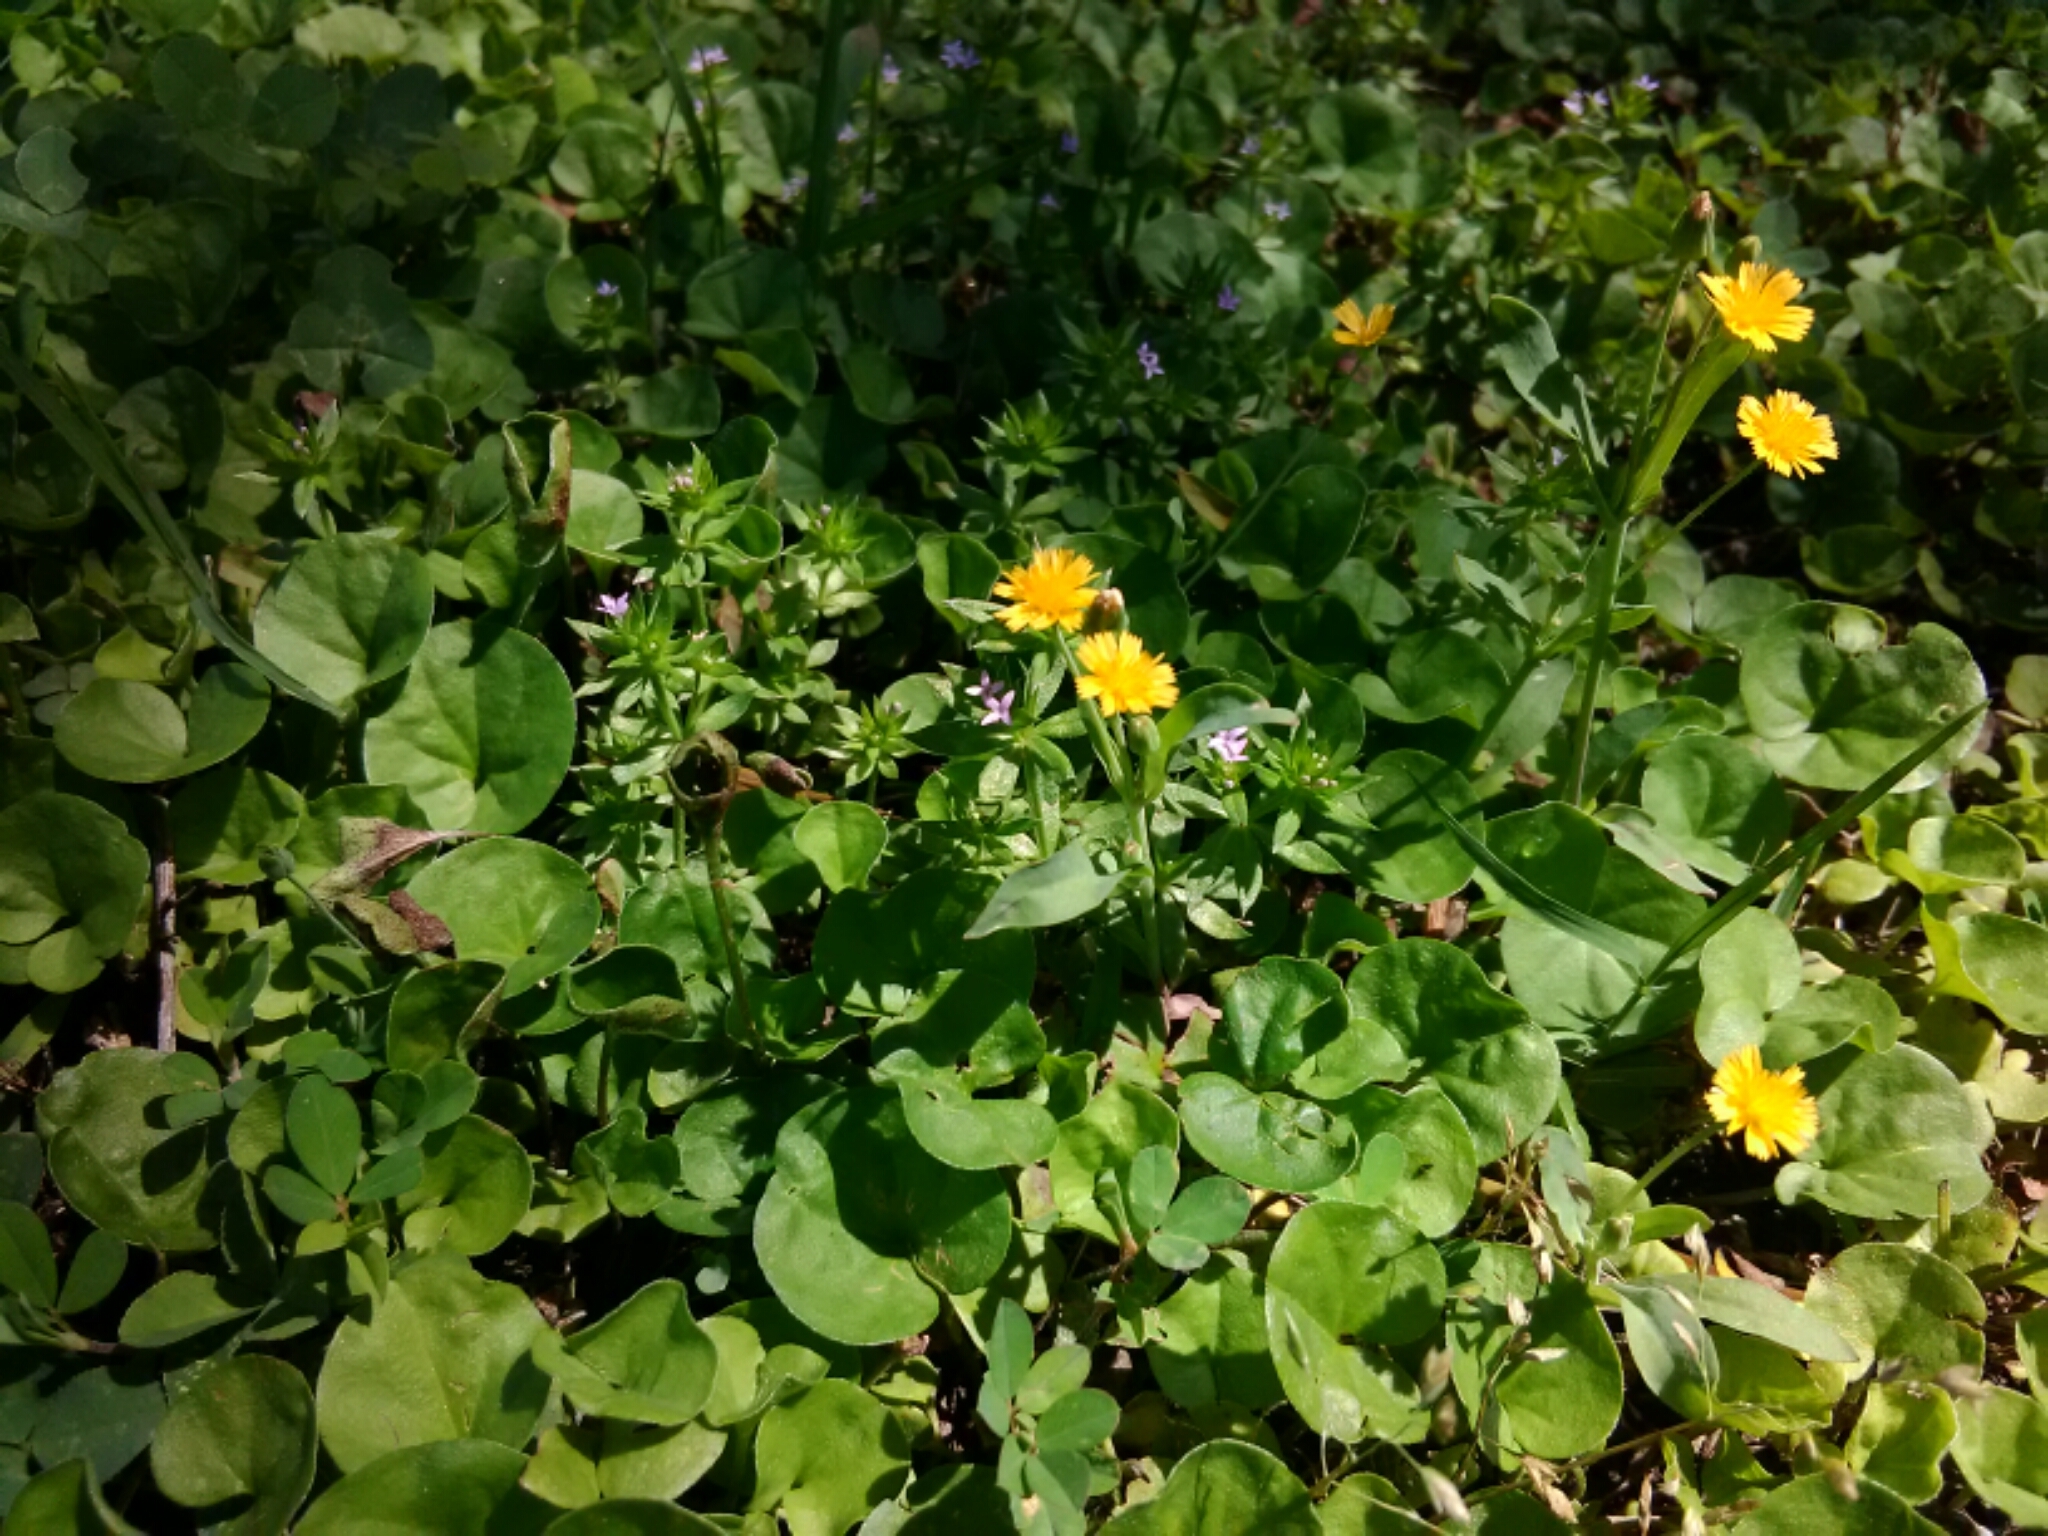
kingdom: Plantae
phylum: Tracheophyta
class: Magnoliopsida
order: Asterales
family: Asteraceae
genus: Krigia
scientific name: Krigia cespitosa
